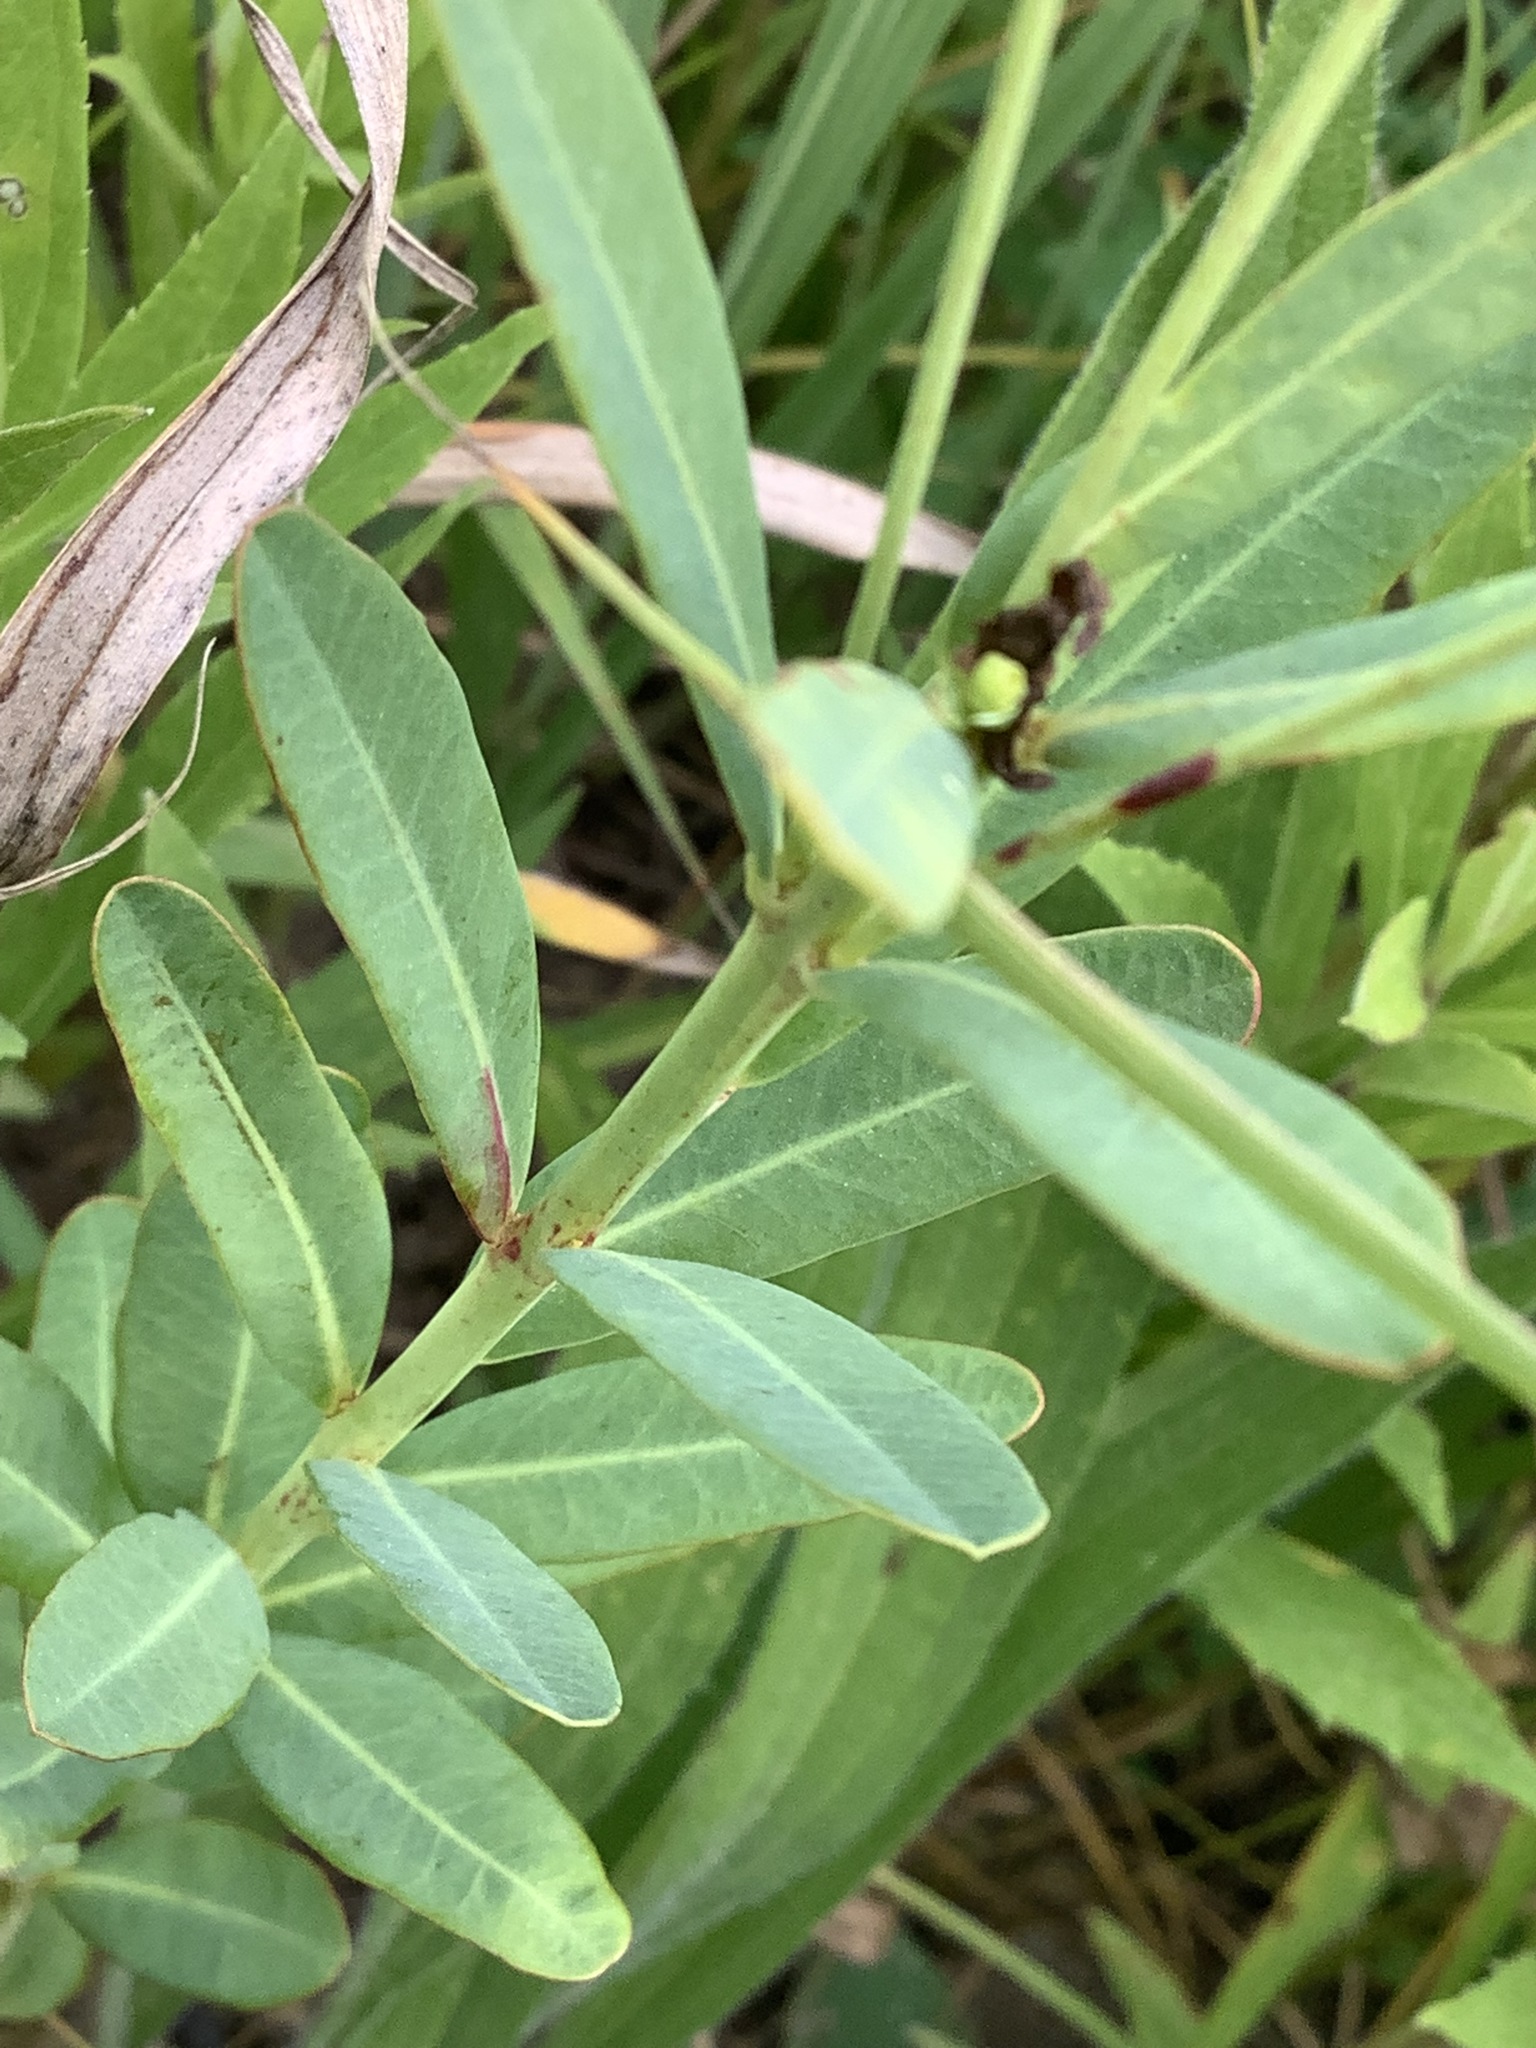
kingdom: Plantae
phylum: Tracheophyta
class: Magnoliopsida
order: Malpighiales
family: Euphorbiaceae
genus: Euphorbia
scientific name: Euphorbia corollata
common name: Flowering spurge
